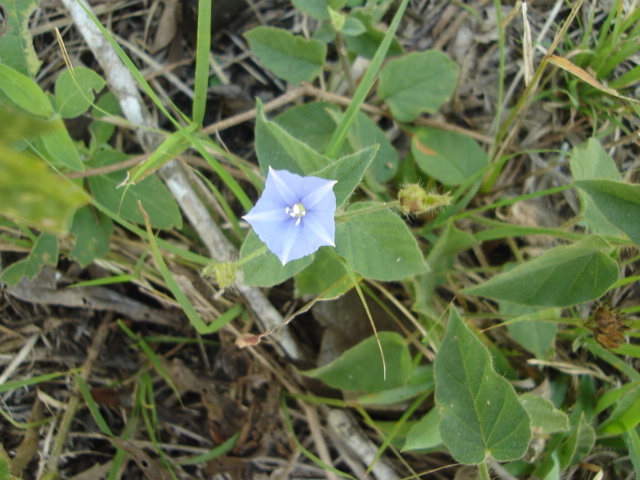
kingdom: Plantae
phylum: Tracheophyta
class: Magnoliopsida
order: Solanales
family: Convolvulaceae
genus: Jacquemontia
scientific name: Jacquemontia evolvuloides
